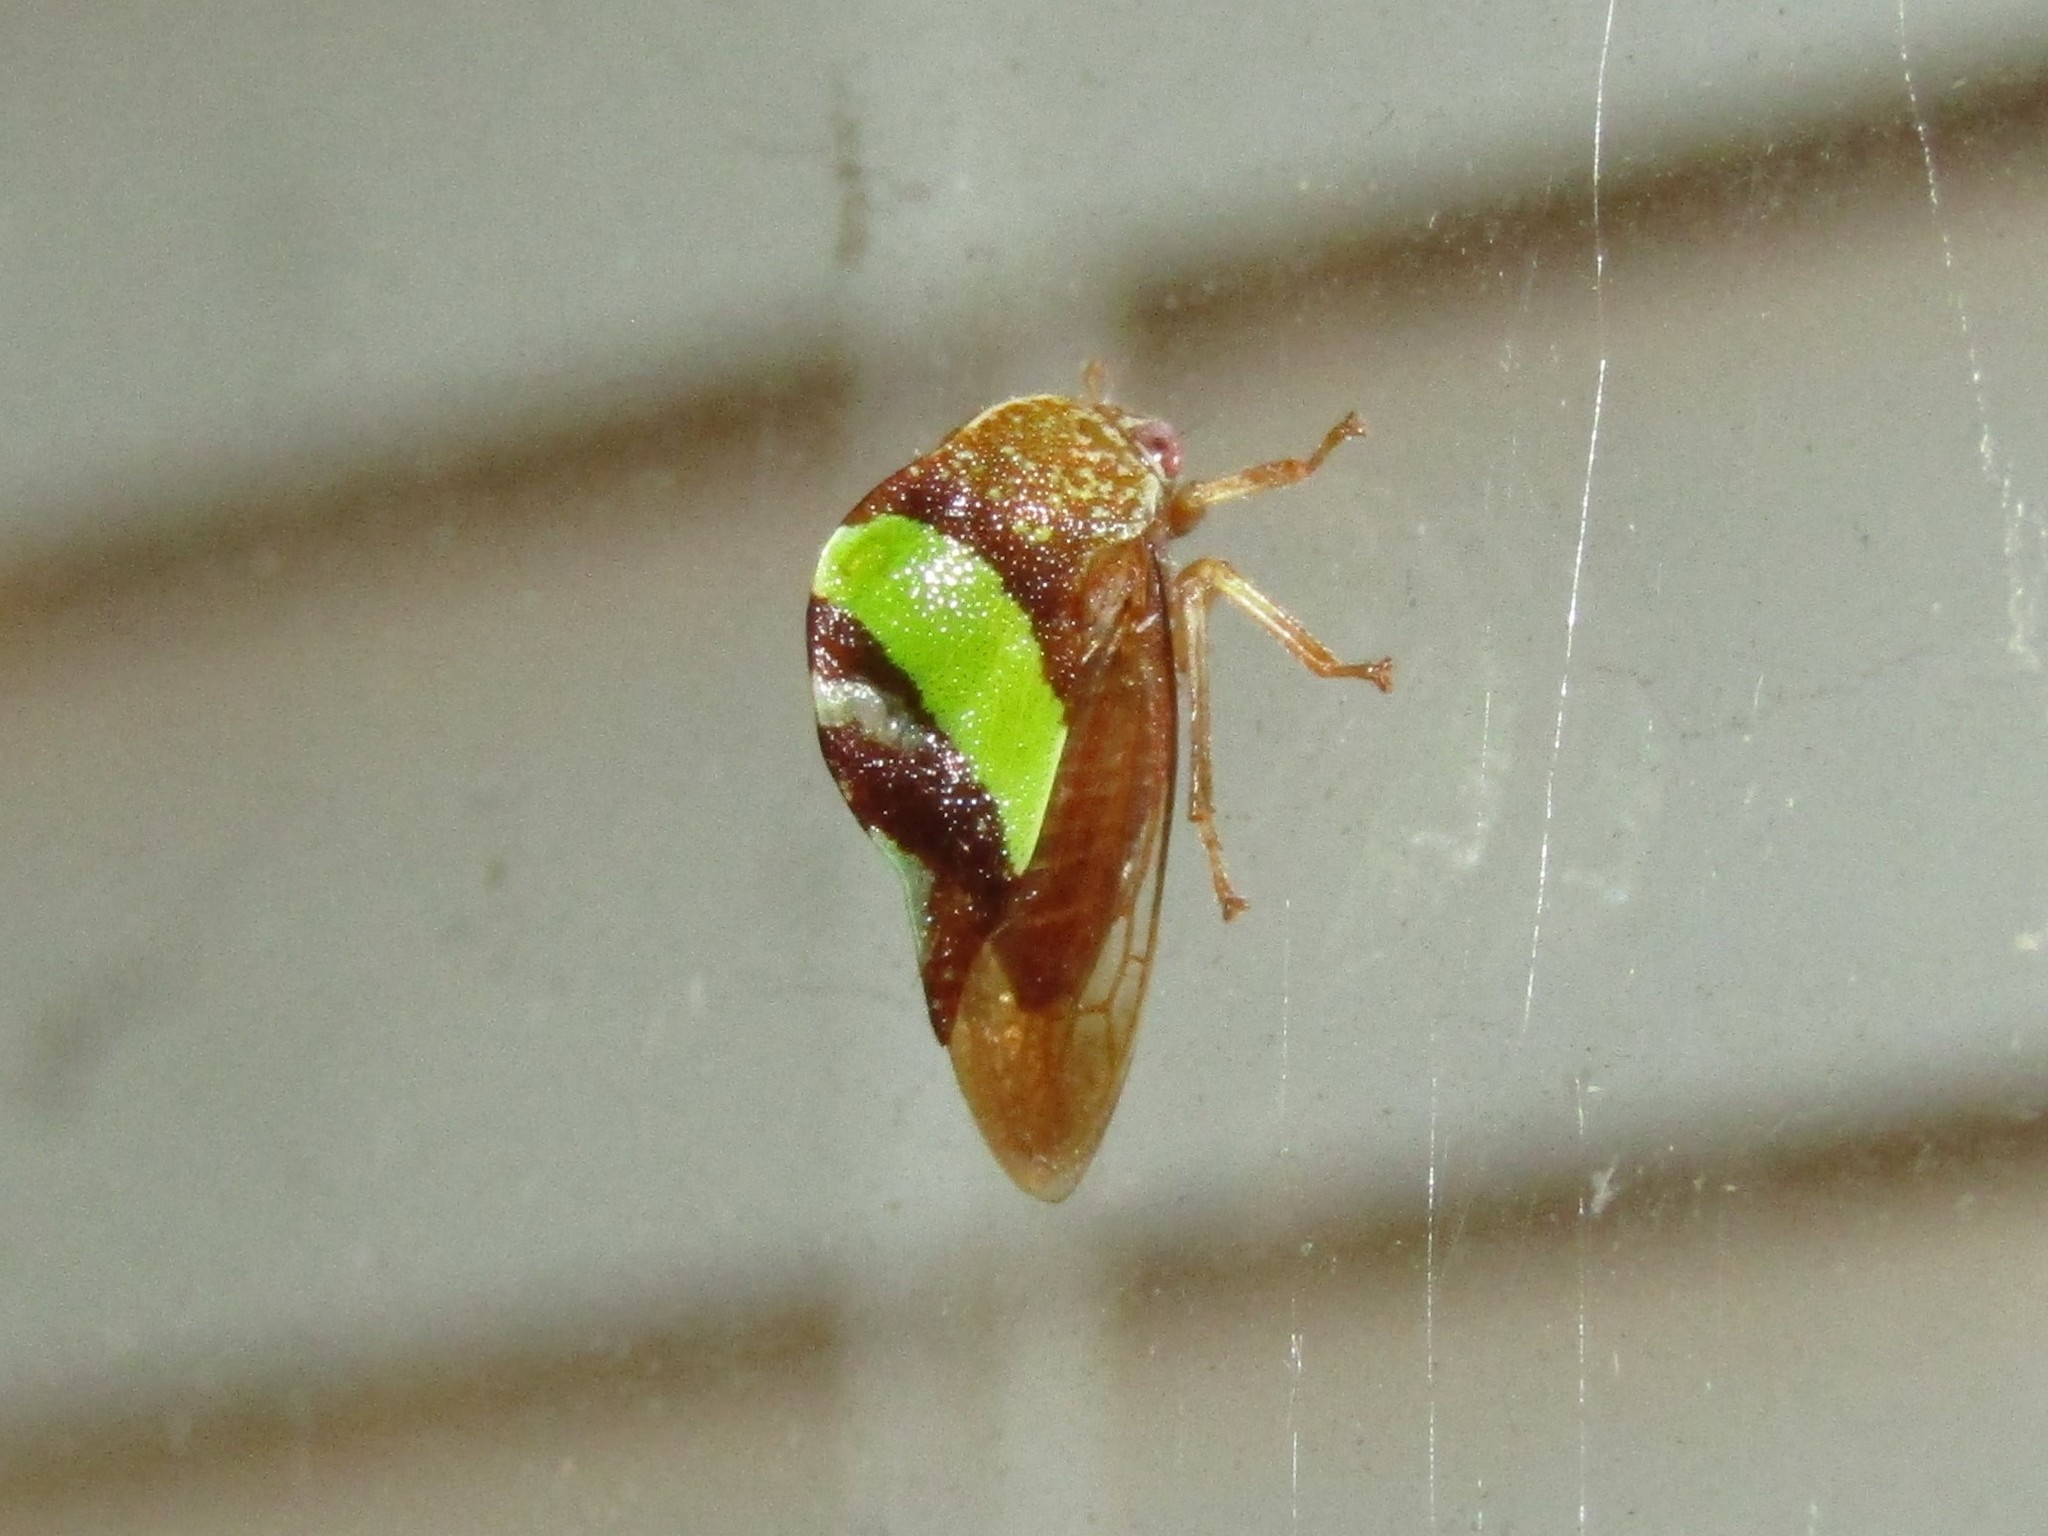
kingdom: Animalia
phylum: Arthropoda
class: Insecta
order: Hemiptera
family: Membracidae
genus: Smilia
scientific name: Smilia fasciata
